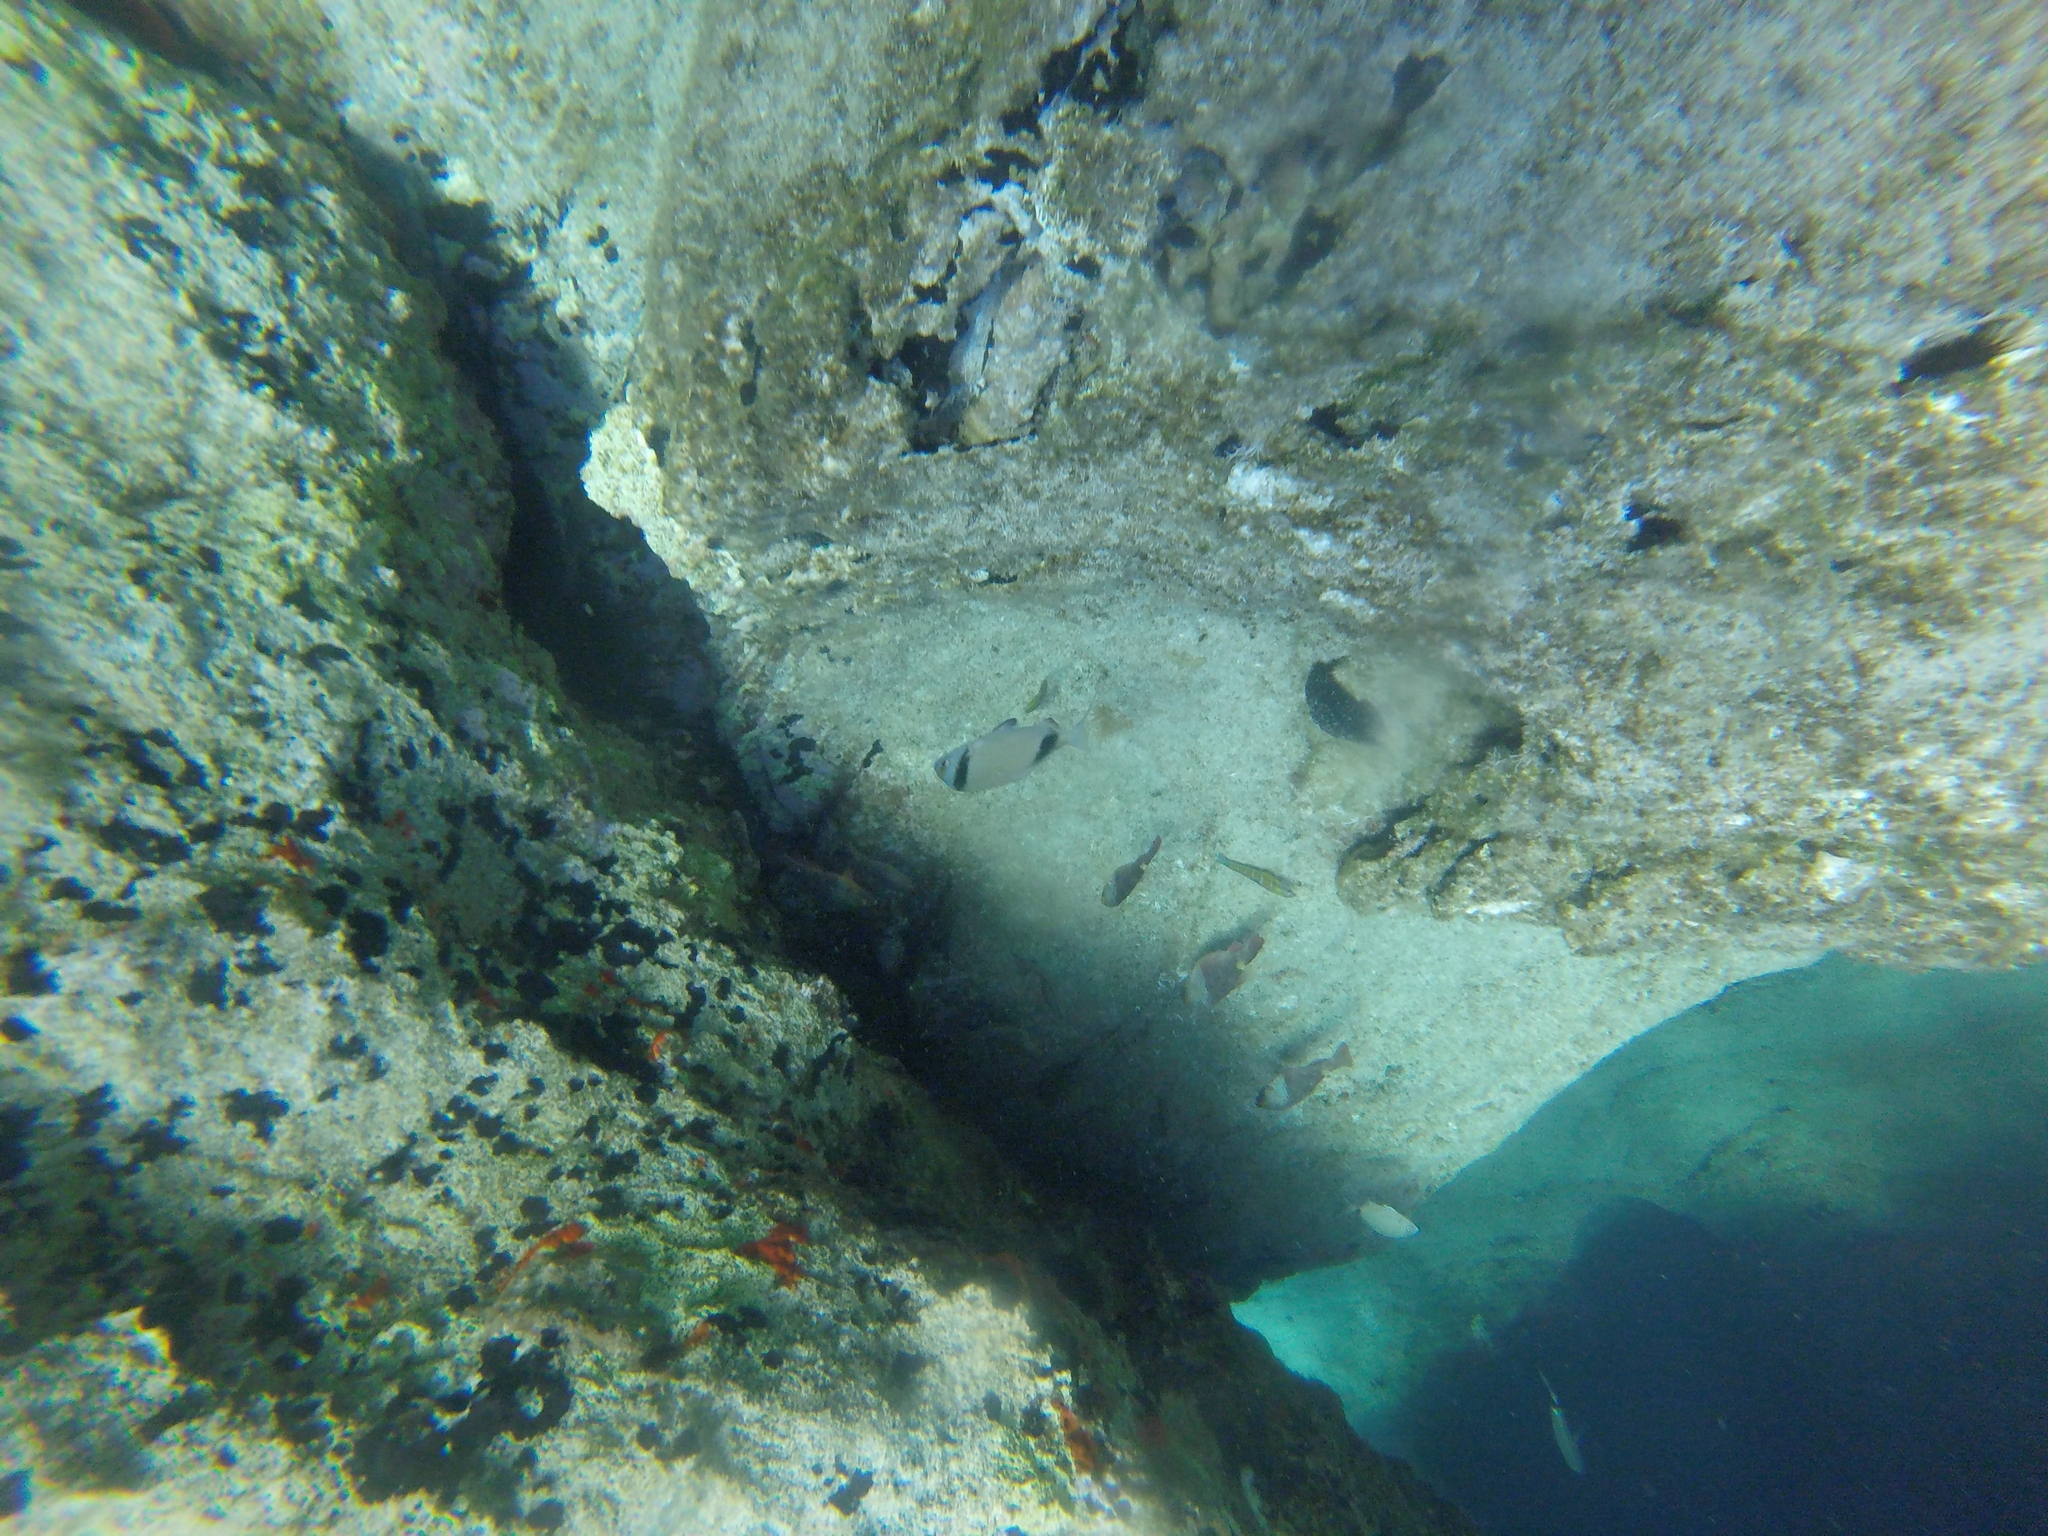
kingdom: Animalia
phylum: Chordata
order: Perciformes
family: Sparidae
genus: Diplodus
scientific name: Diplodus vulgaris
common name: Common two-banded seabream
